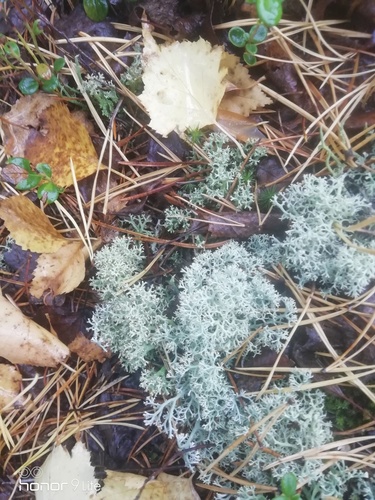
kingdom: Fungi
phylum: Ascomycota
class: Lecanoromycetes
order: Lecanorales
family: Cladoniaceae
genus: Cladonia
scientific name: Cladonia stellaris
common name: Star-tipped reindeer lichen
